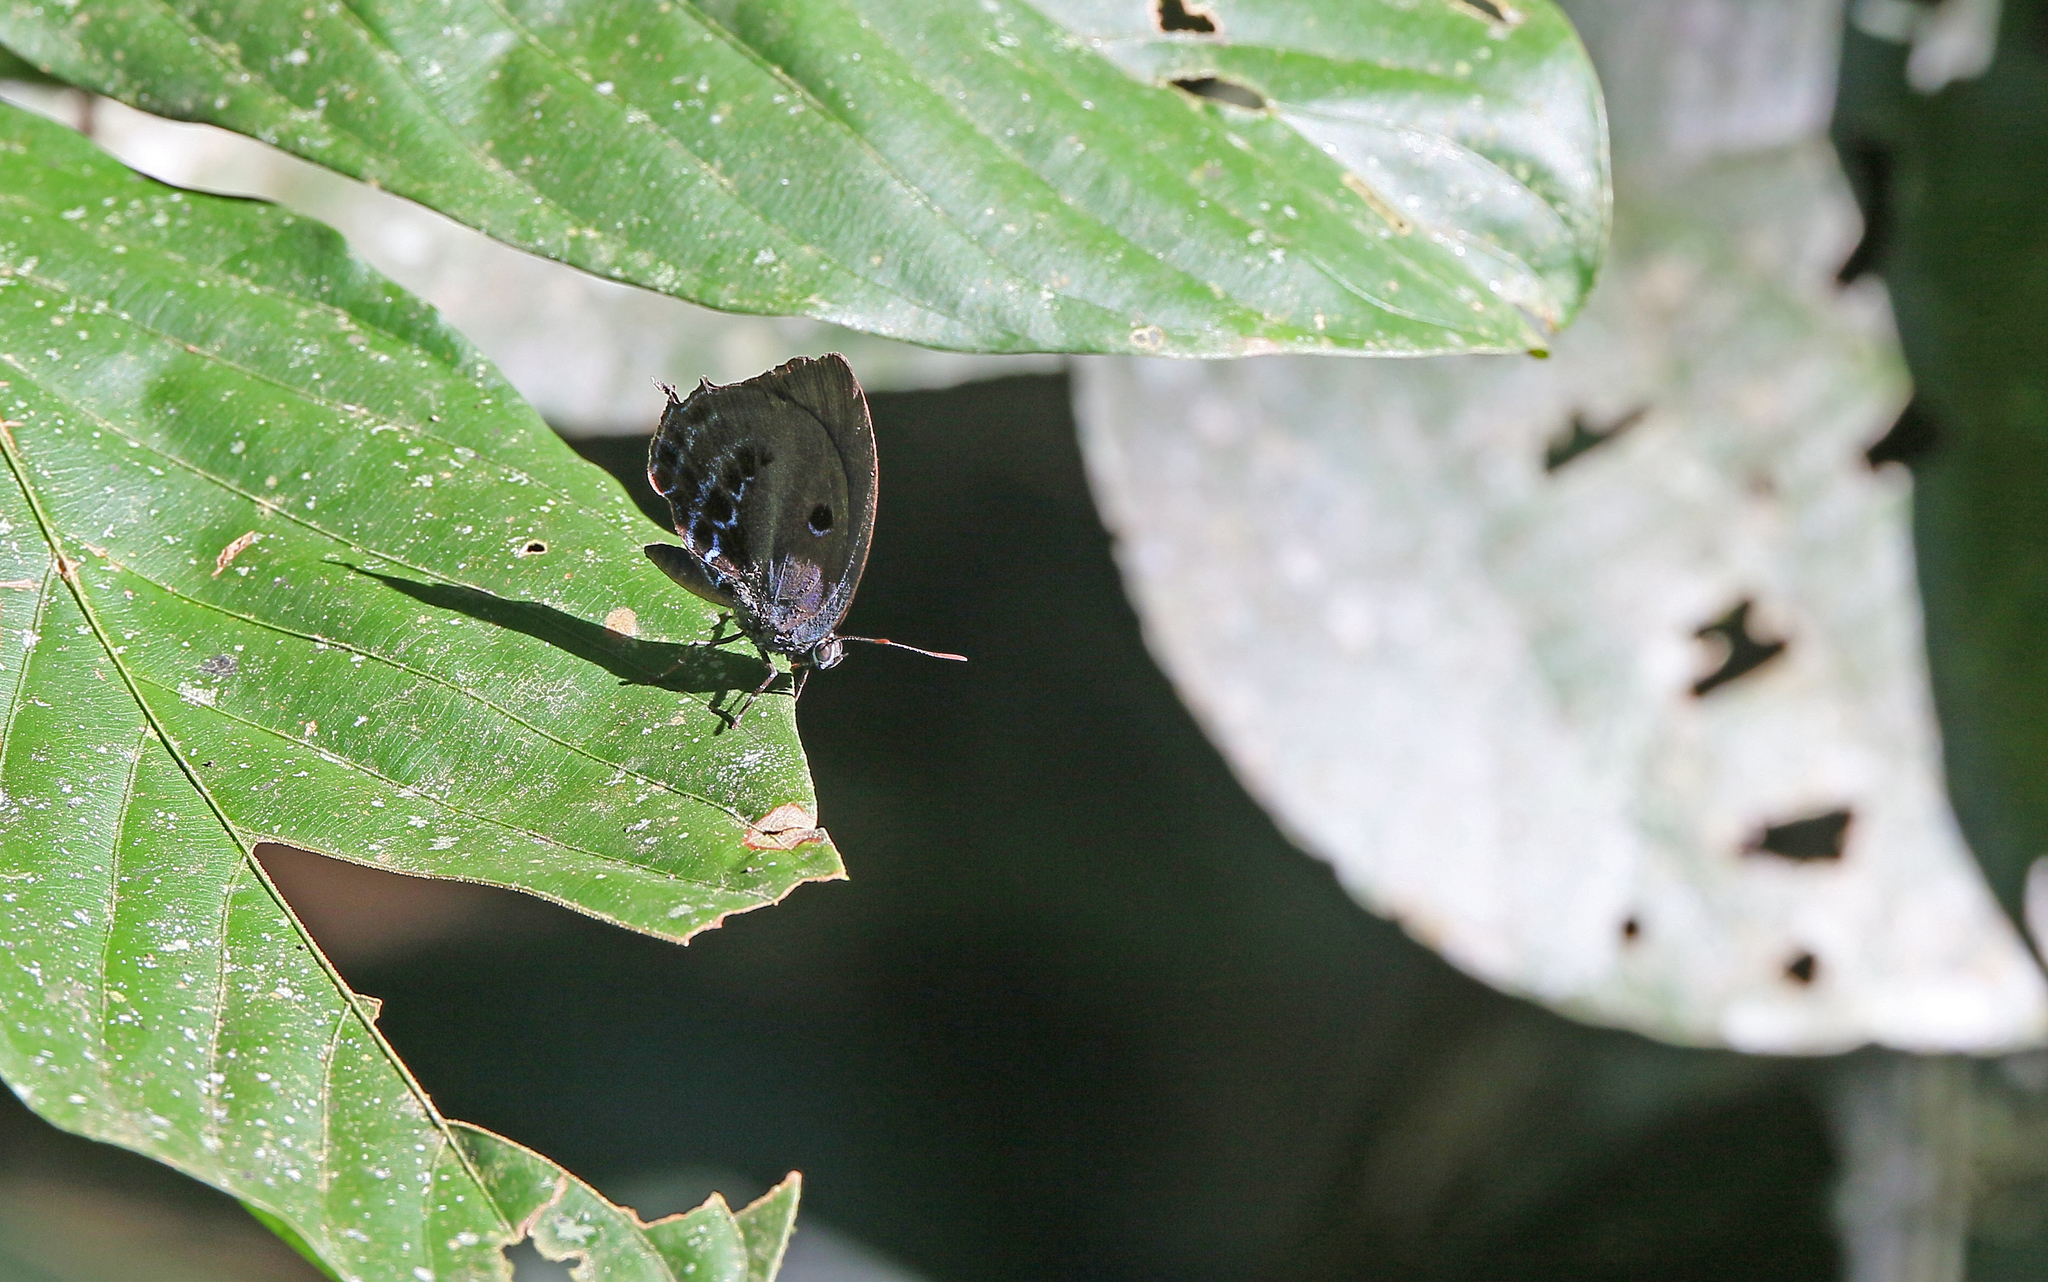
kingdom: Animalia
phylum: Arthropoda
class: Insecta
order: Lepidoptera
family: Lycaenidae
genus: Mithras
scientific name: Mithras nautes
